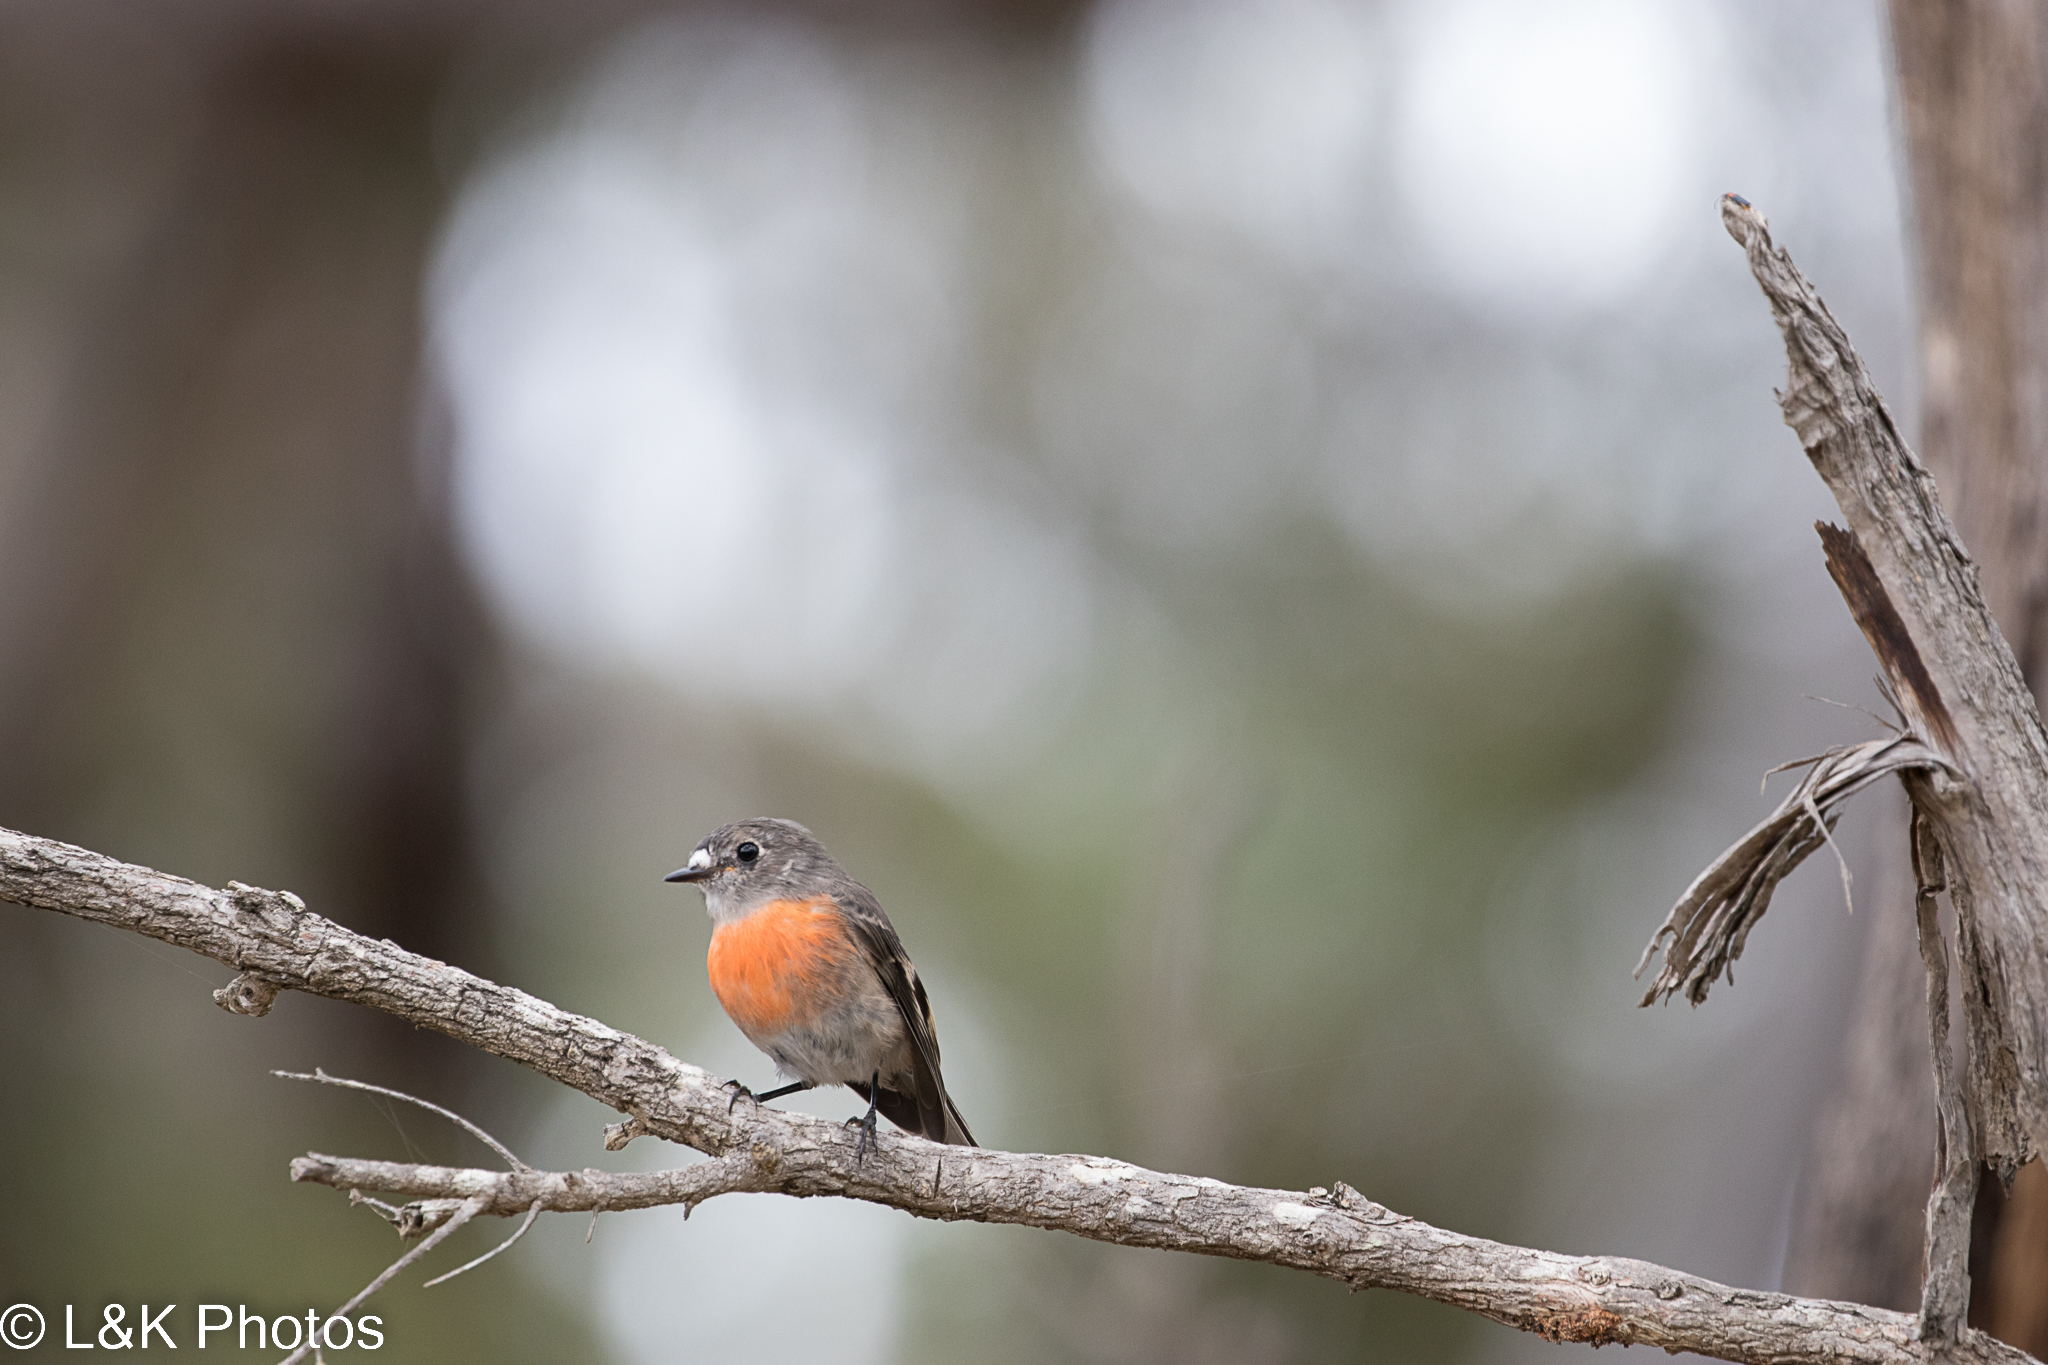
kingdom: Animalia
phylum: Chordata
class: Aves
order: Passeriformes
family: Petroicidae
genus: Petroica
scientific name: Petroica boodang
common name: Scarlet robin
